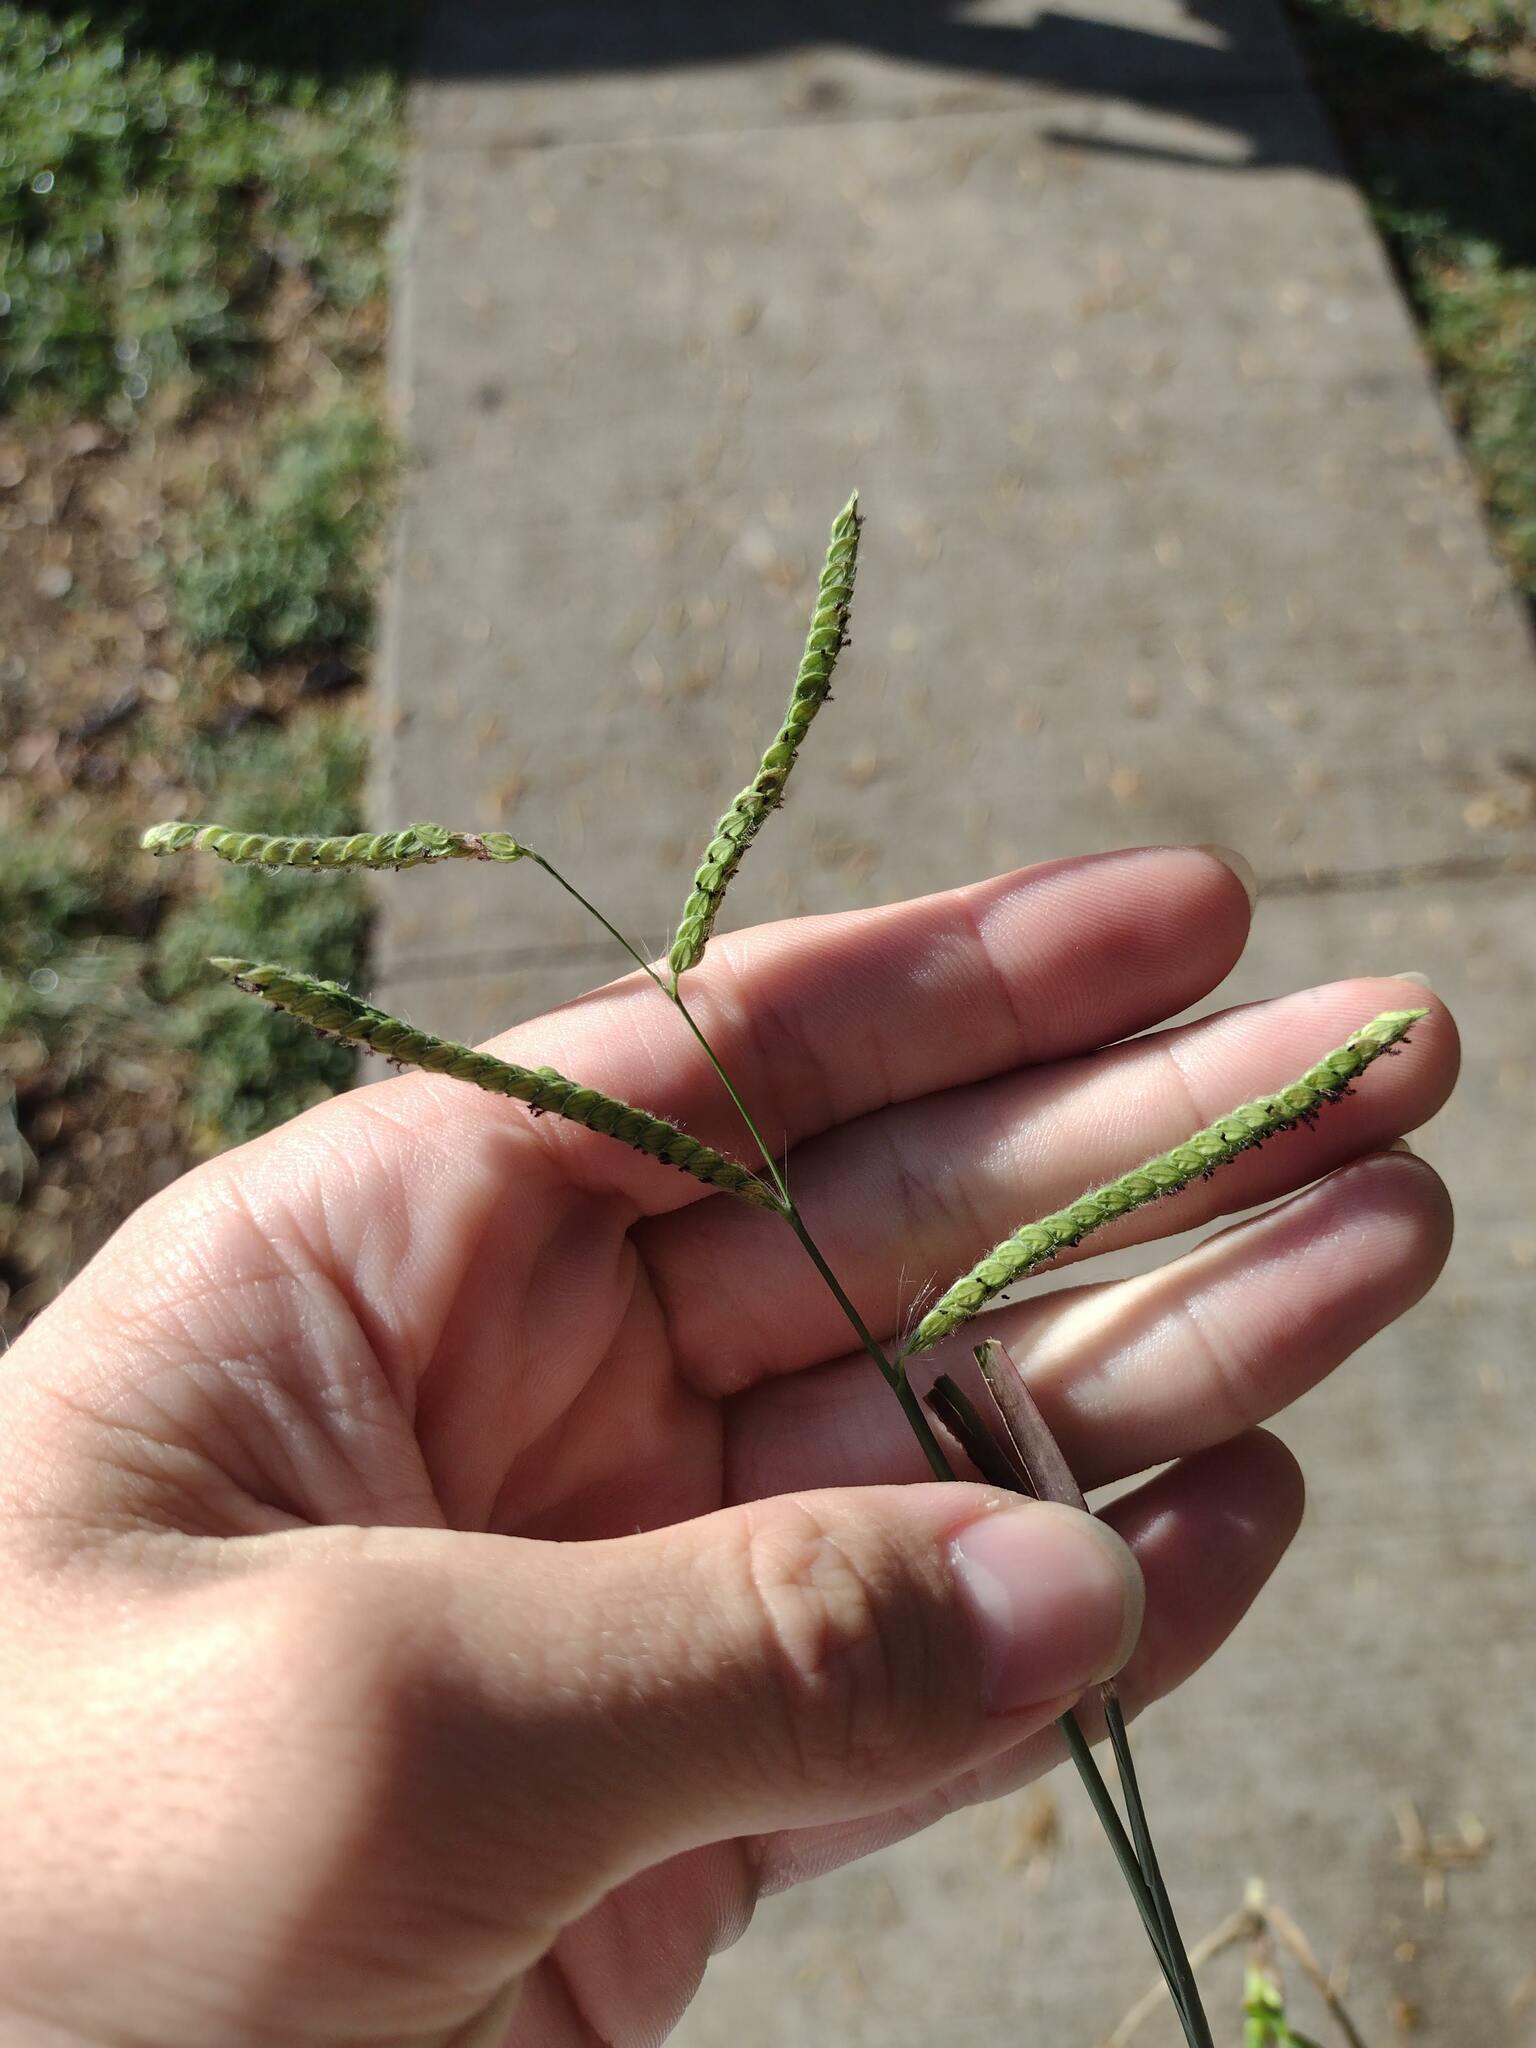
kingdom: Plantae
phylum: Tracheophyta
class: Liliopsida
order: Poales
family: Poaceae
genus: Paspalum
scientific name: Paspalum dilatatum
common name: Dallisgrass
